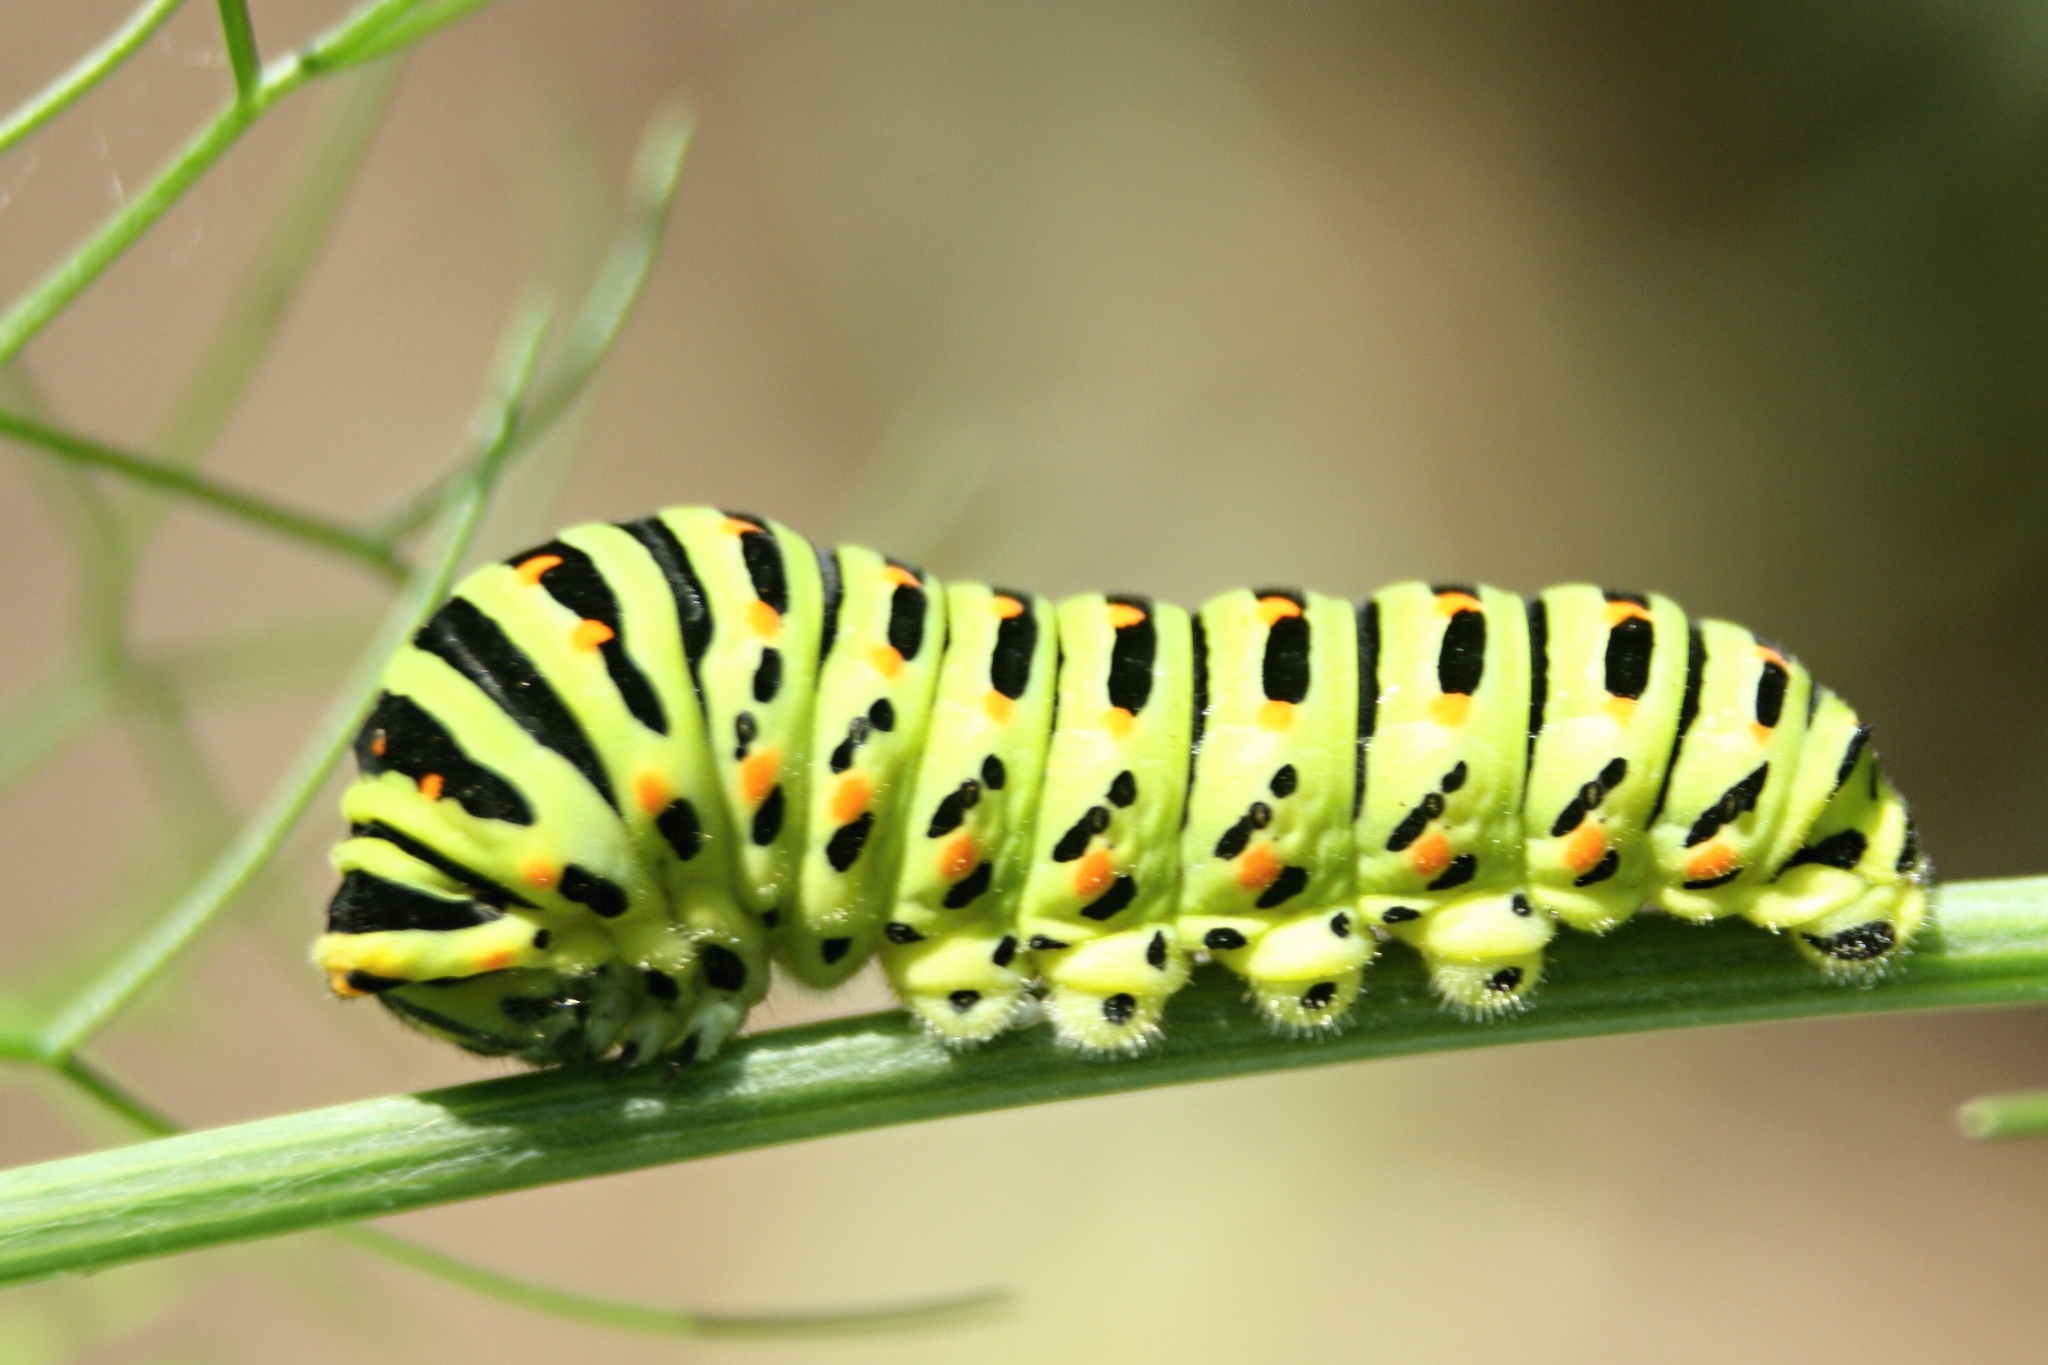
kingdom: Animalia
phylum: Arthropoda
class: Insecta
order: Lepidoptera
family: Papilionidae
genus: Papilio
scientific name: Papilio machaon
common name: Swallowtail
